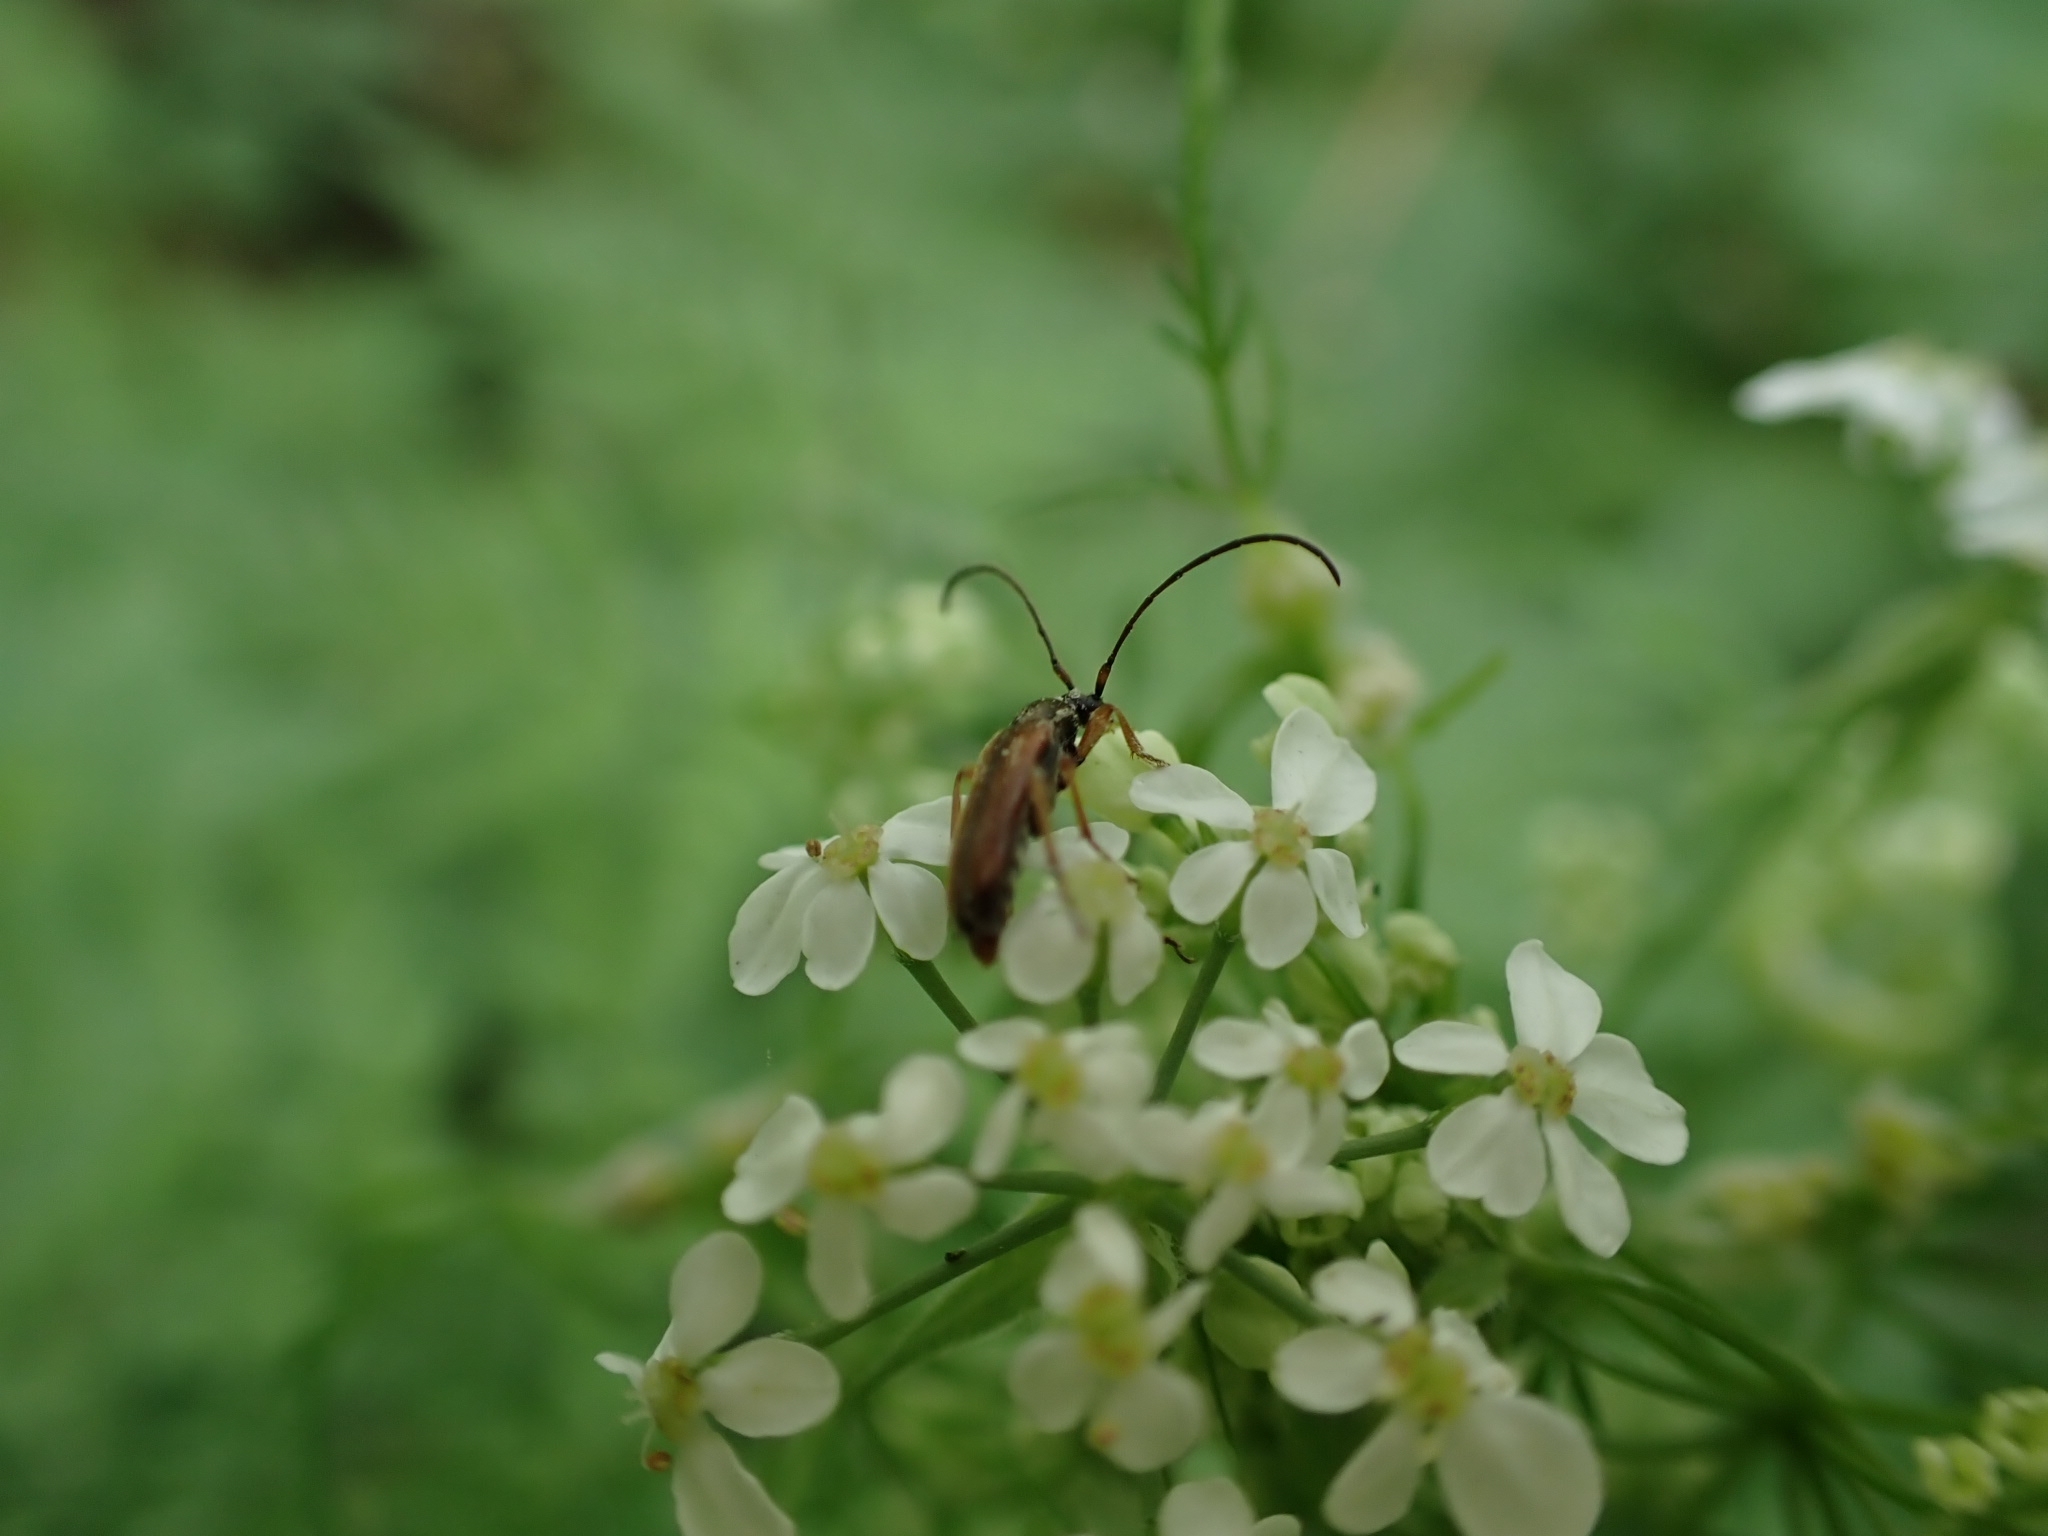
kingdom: Animalia
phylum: Arthropoda
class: Insecta
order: Coleoptera
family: Cerambycidae
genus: Alosterna
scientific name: Alosterna tabacicolor
